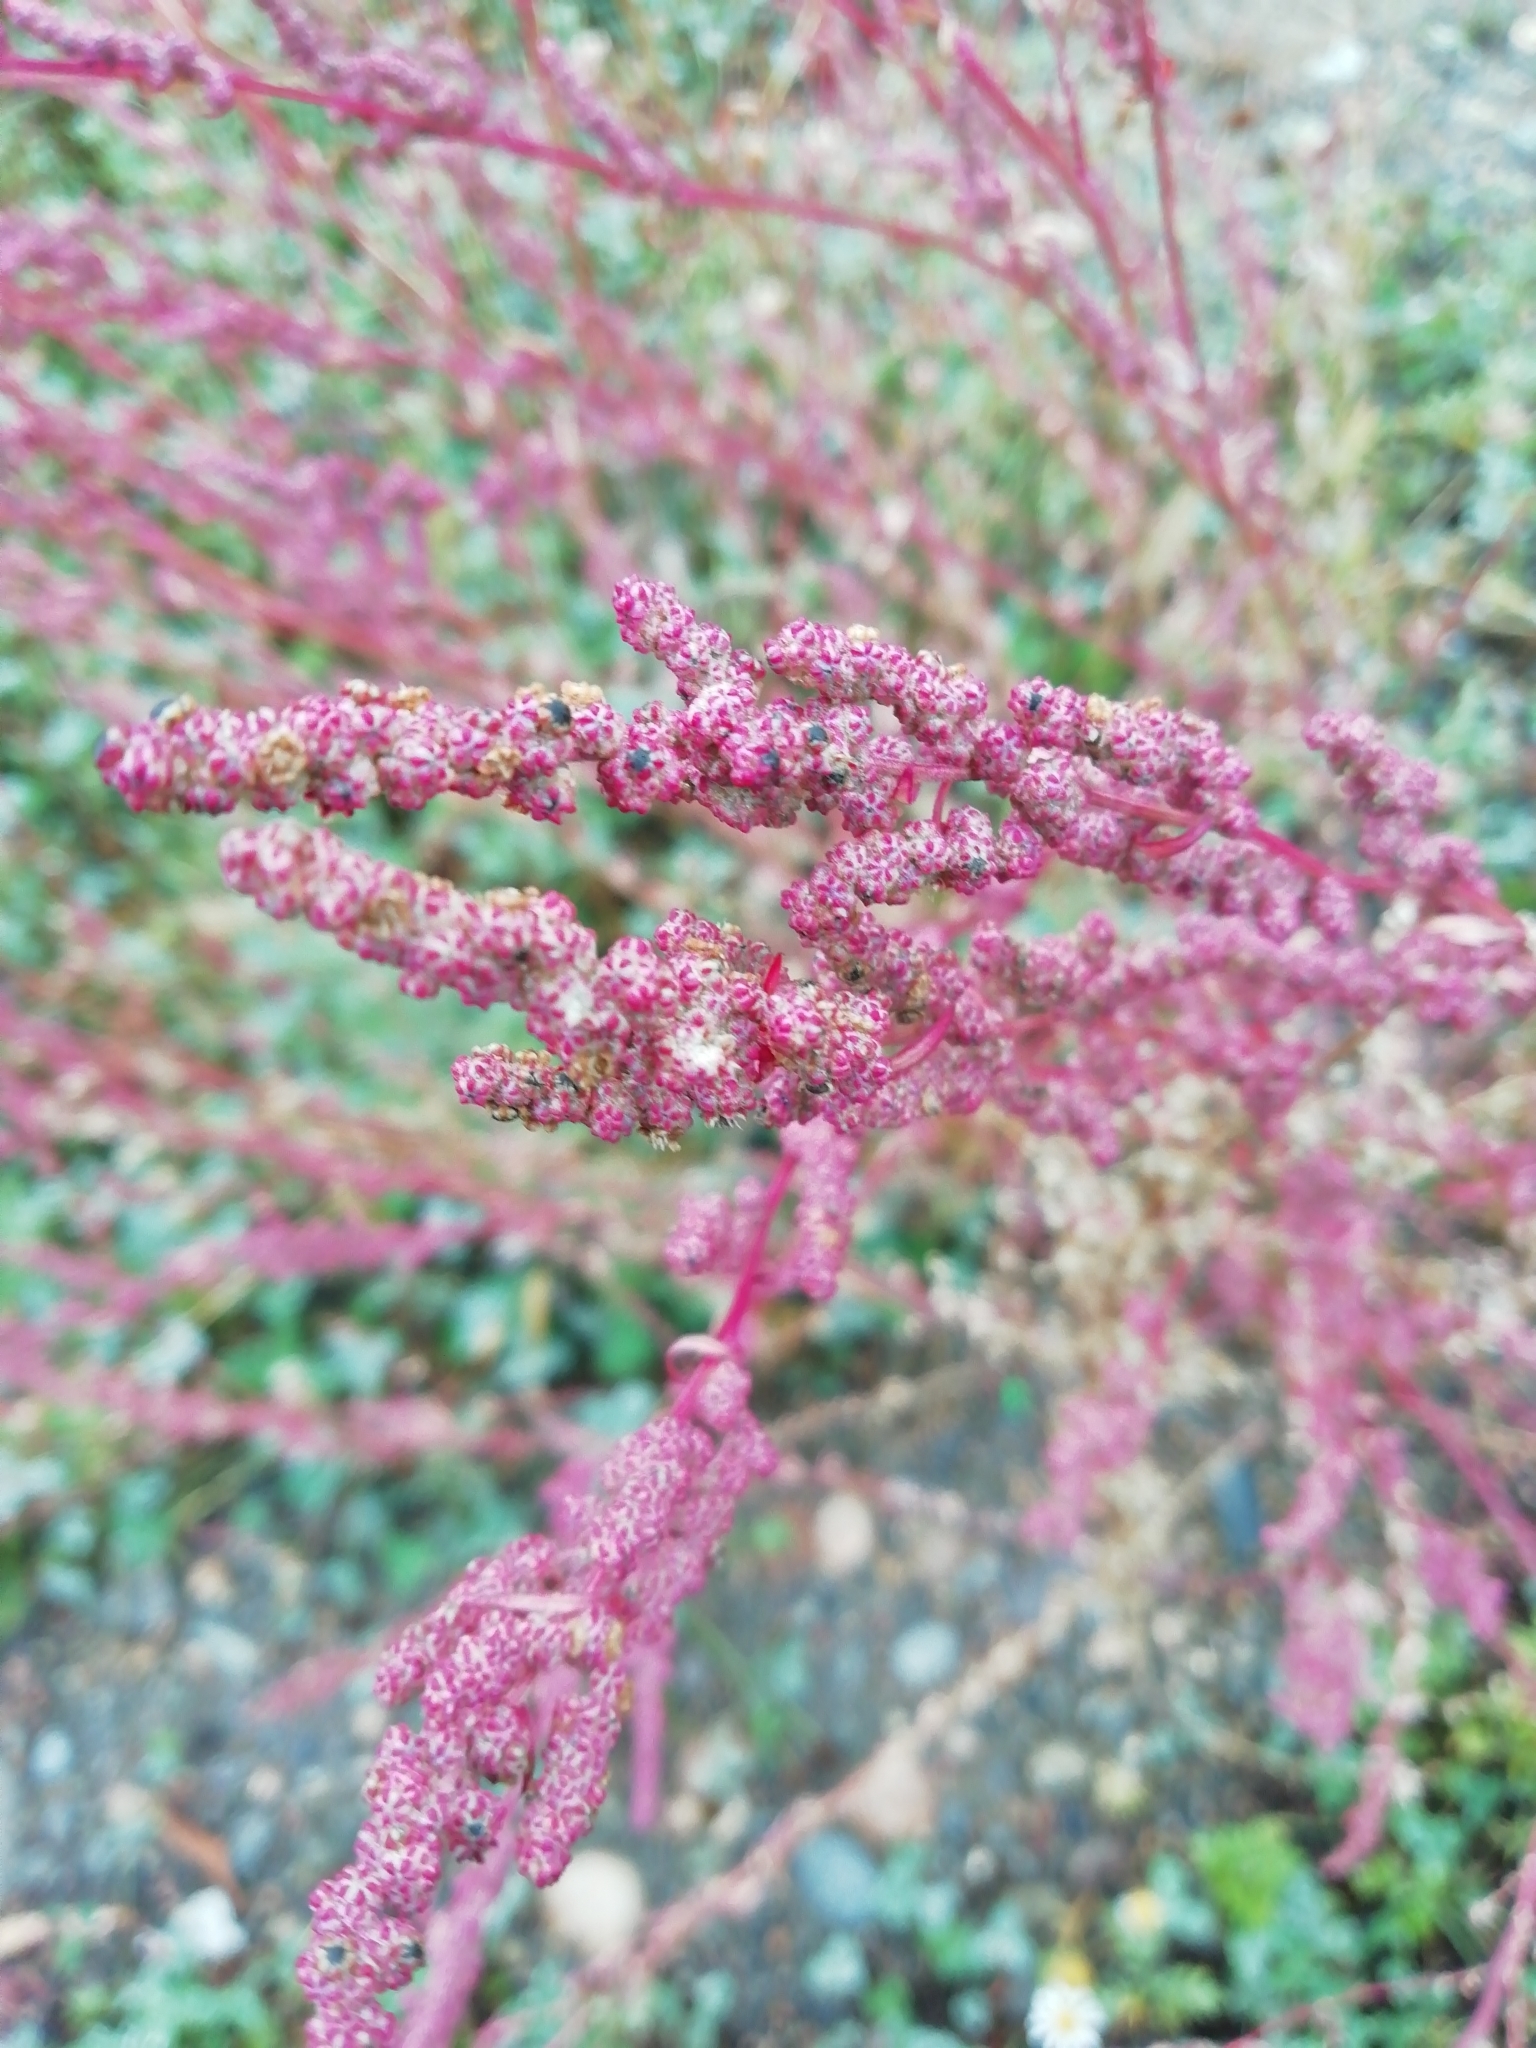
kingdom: Plantae
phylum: Tracheophyta
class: Magnoliopsida
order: Caryophyllales
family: Amaranthaceae
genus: Chenopodium
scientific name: Chenopodium album
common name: Fat-hen
